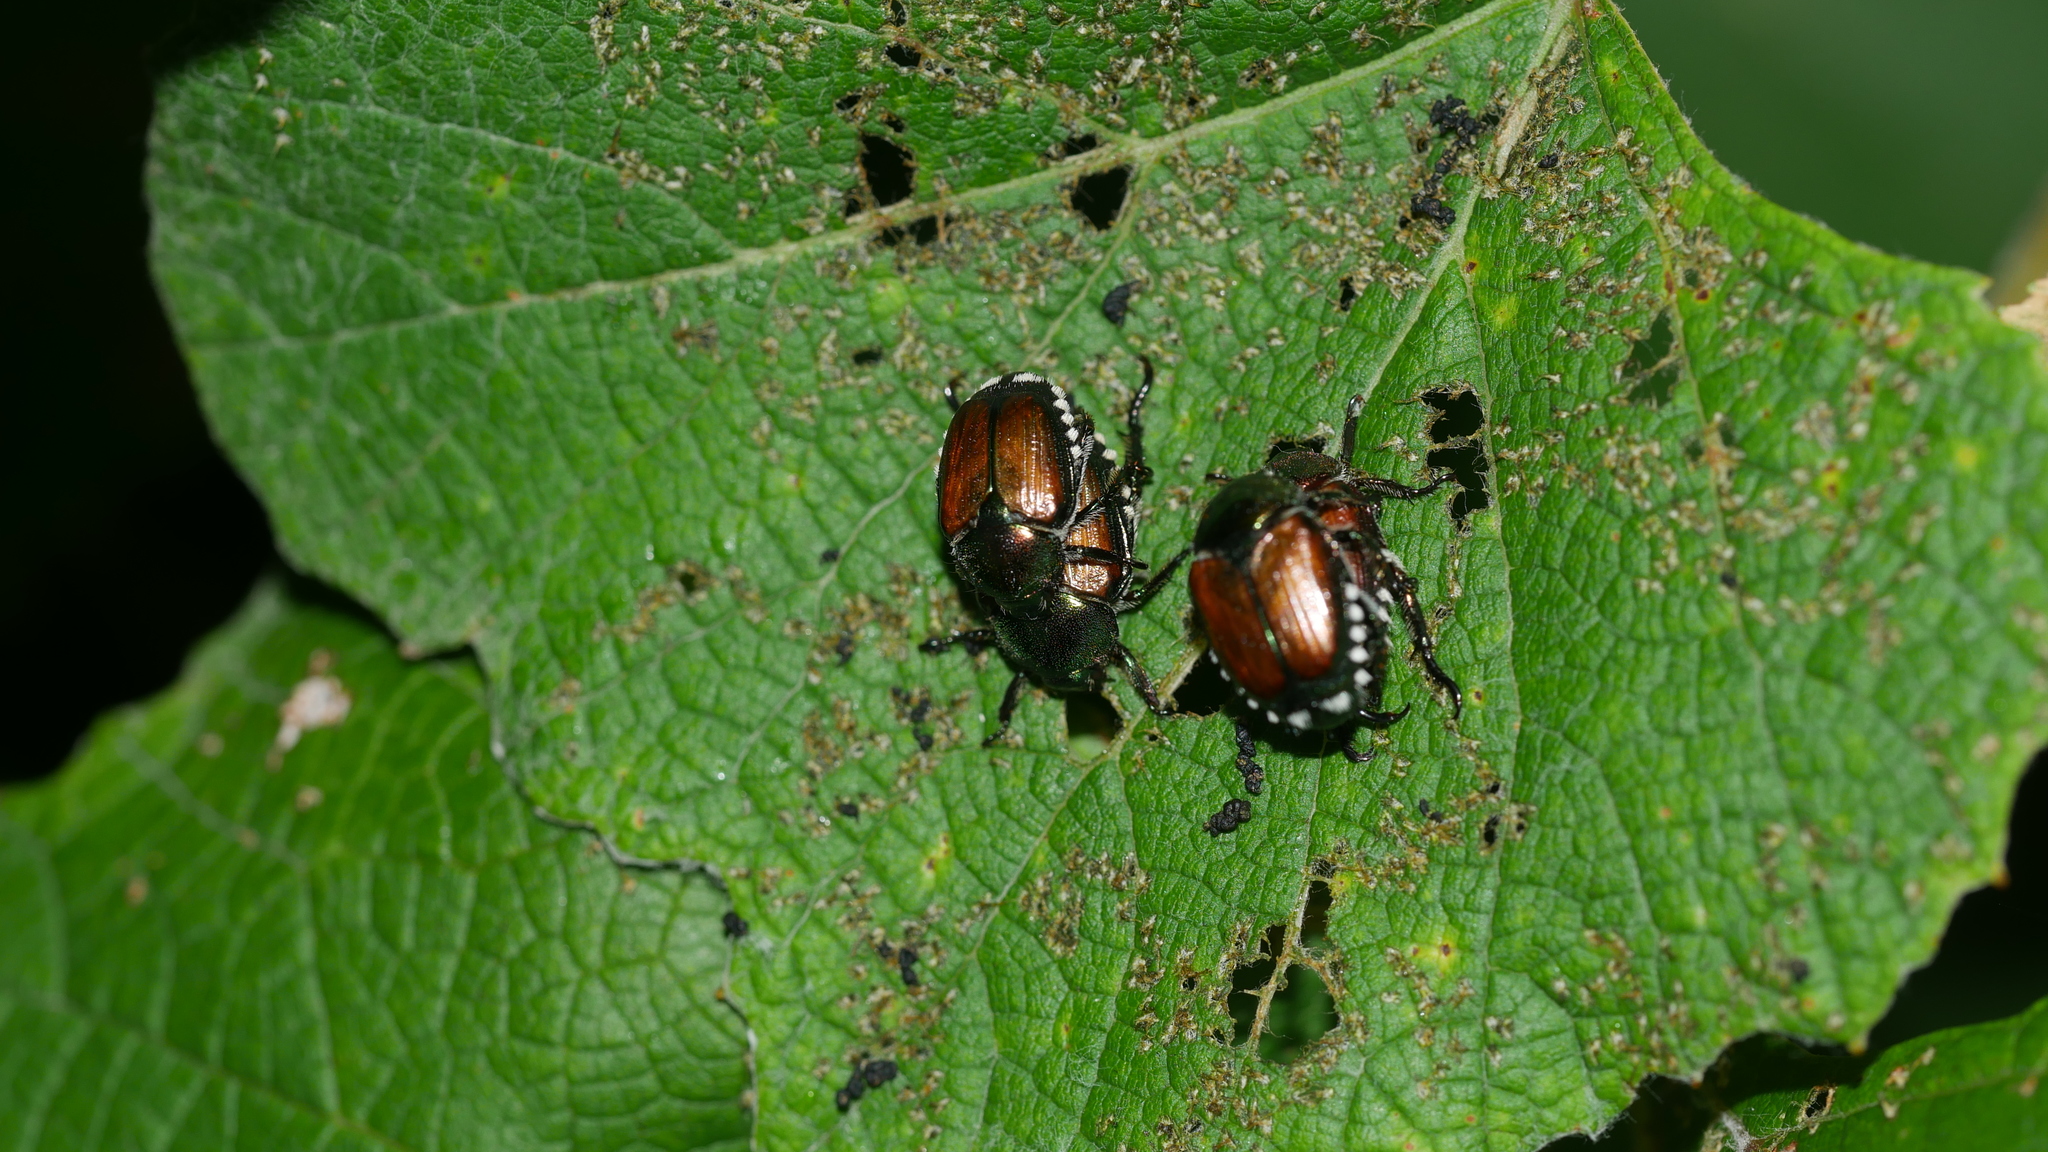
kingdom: Animalia
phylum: Arthropoda
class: Insecta
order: Coleoptera
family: Scarabaeidae
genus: Popillia
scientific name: Popillia japonica
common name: Japanese beetle
